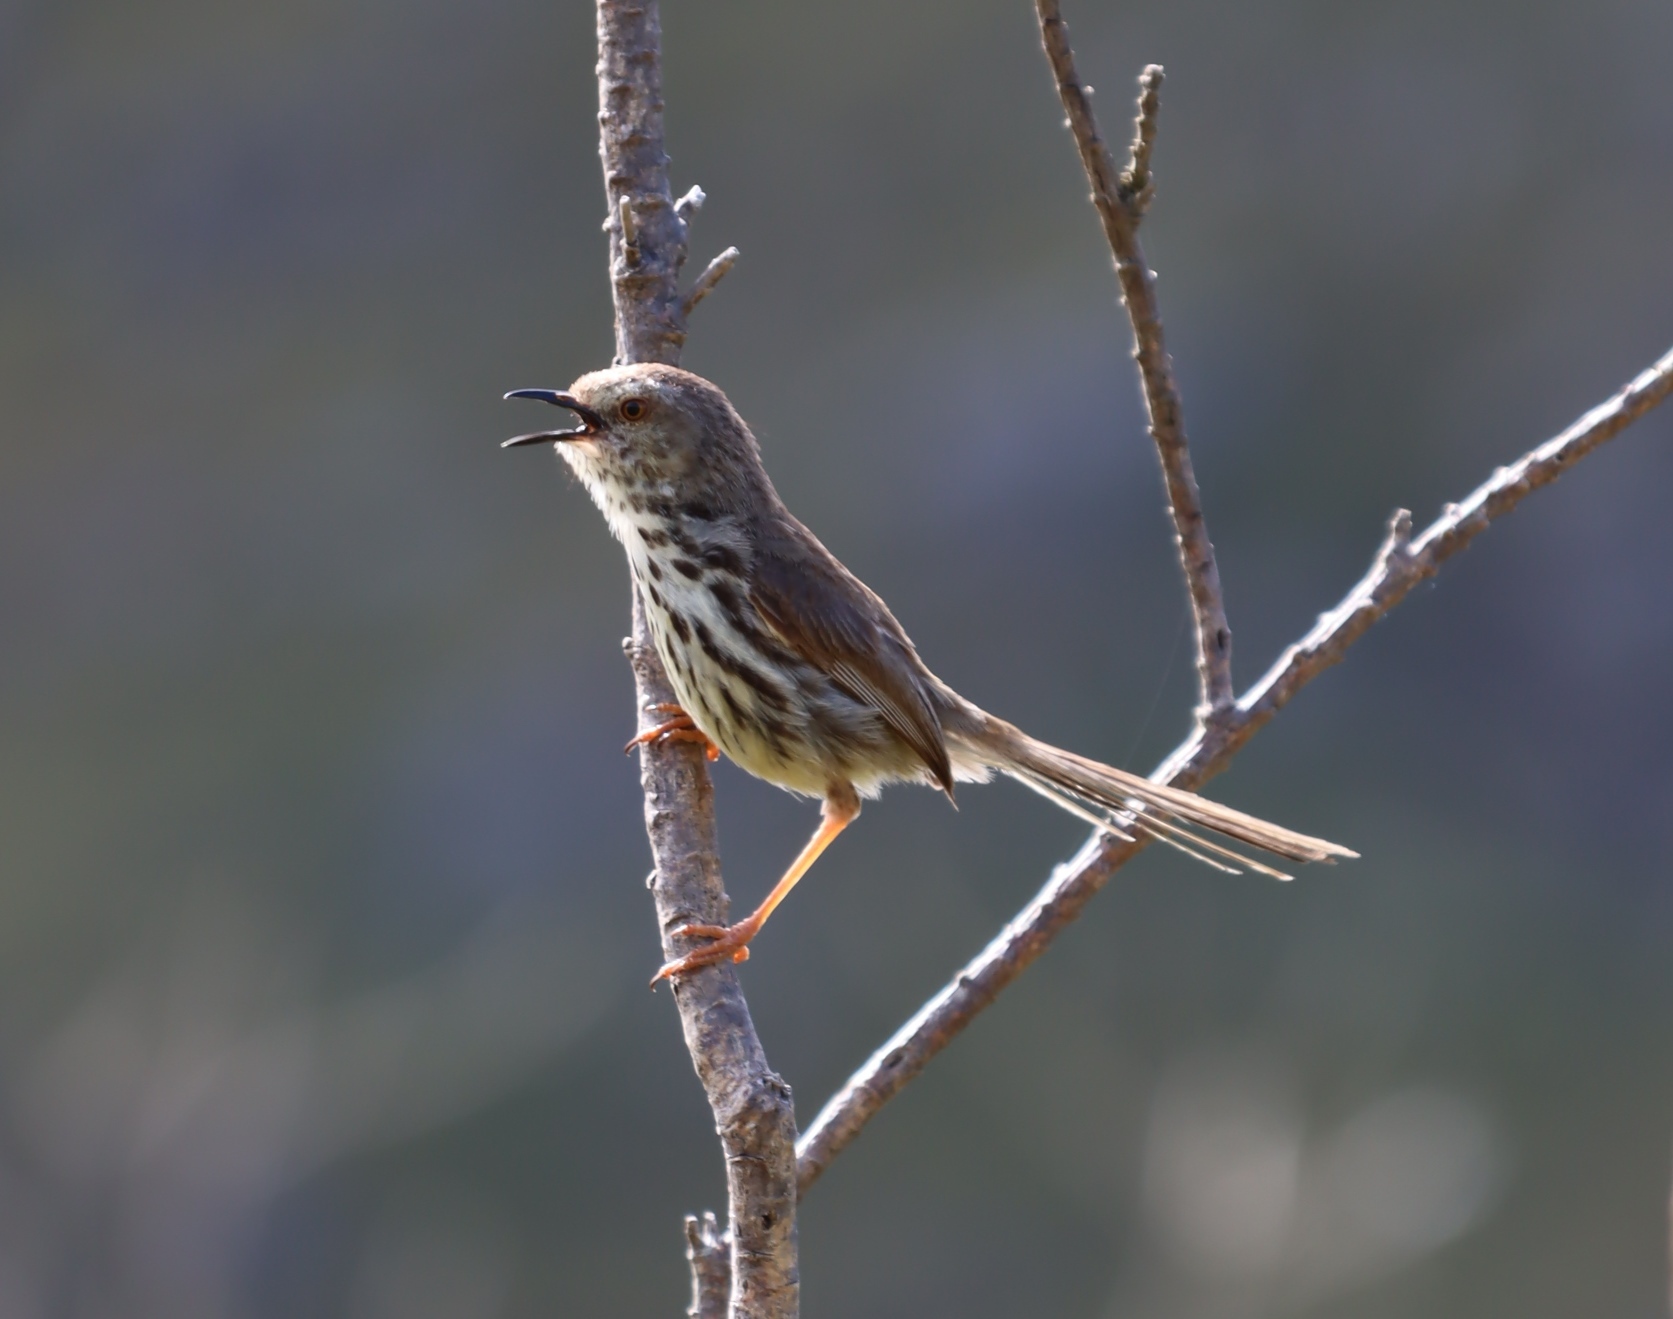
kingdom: Animalia
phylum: Chordata
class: Aves
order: Passeriformes
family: Cisticolidae
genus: Prinia
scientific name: Prinia maculosa
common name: Karoo prinia
